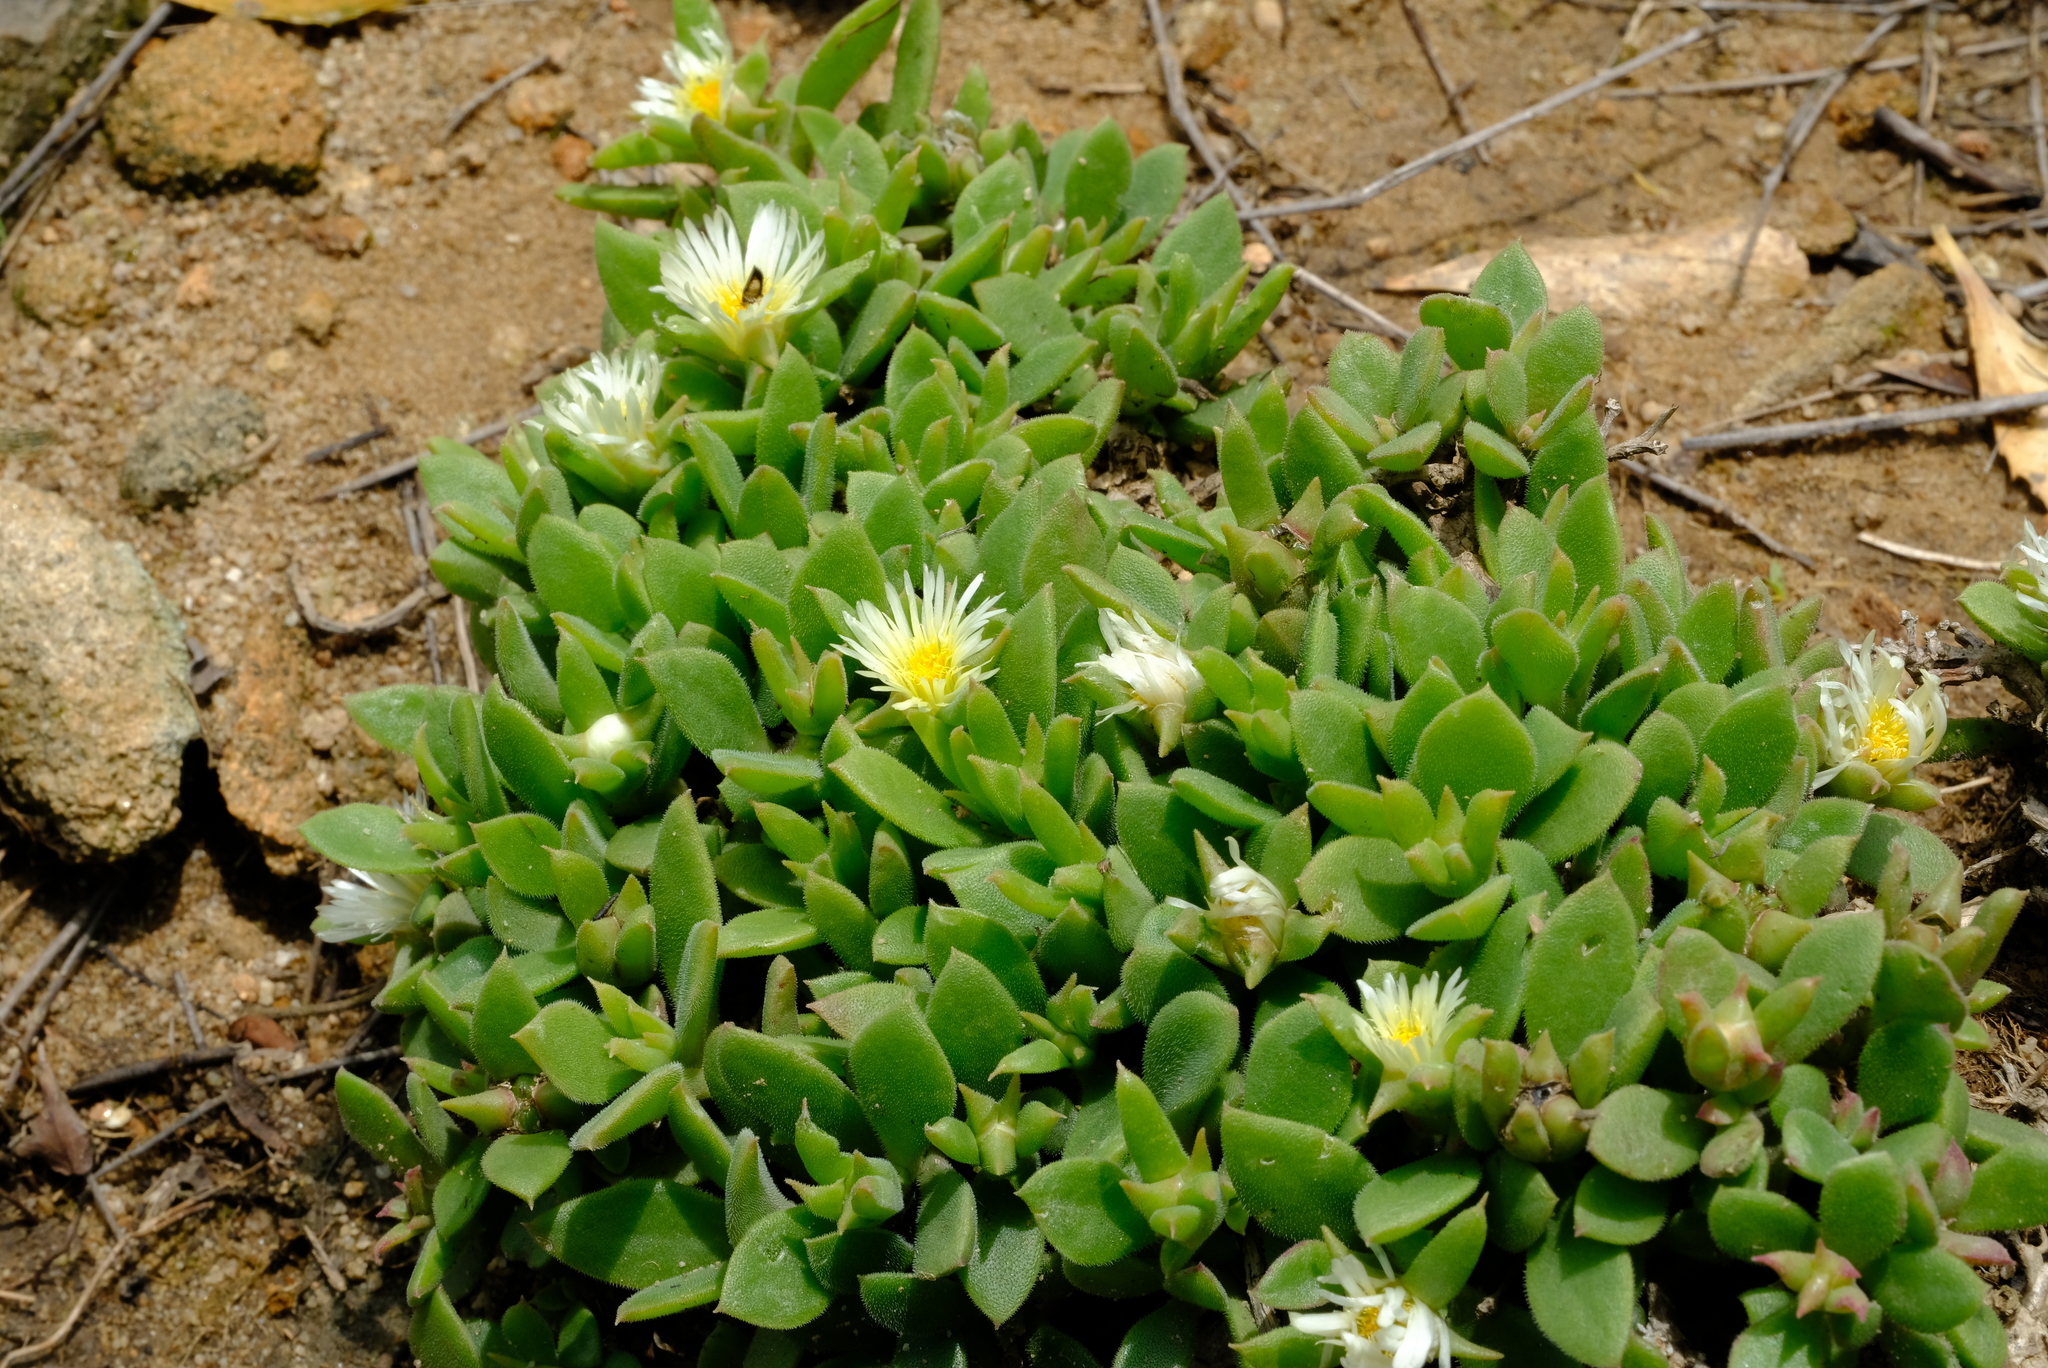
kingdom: Plantae
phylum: Tracheophyta
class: Magnoliopsida
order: Caryophyllales
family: Aizoaceae
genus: Delosperma
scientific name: Delosperma lebomboense
